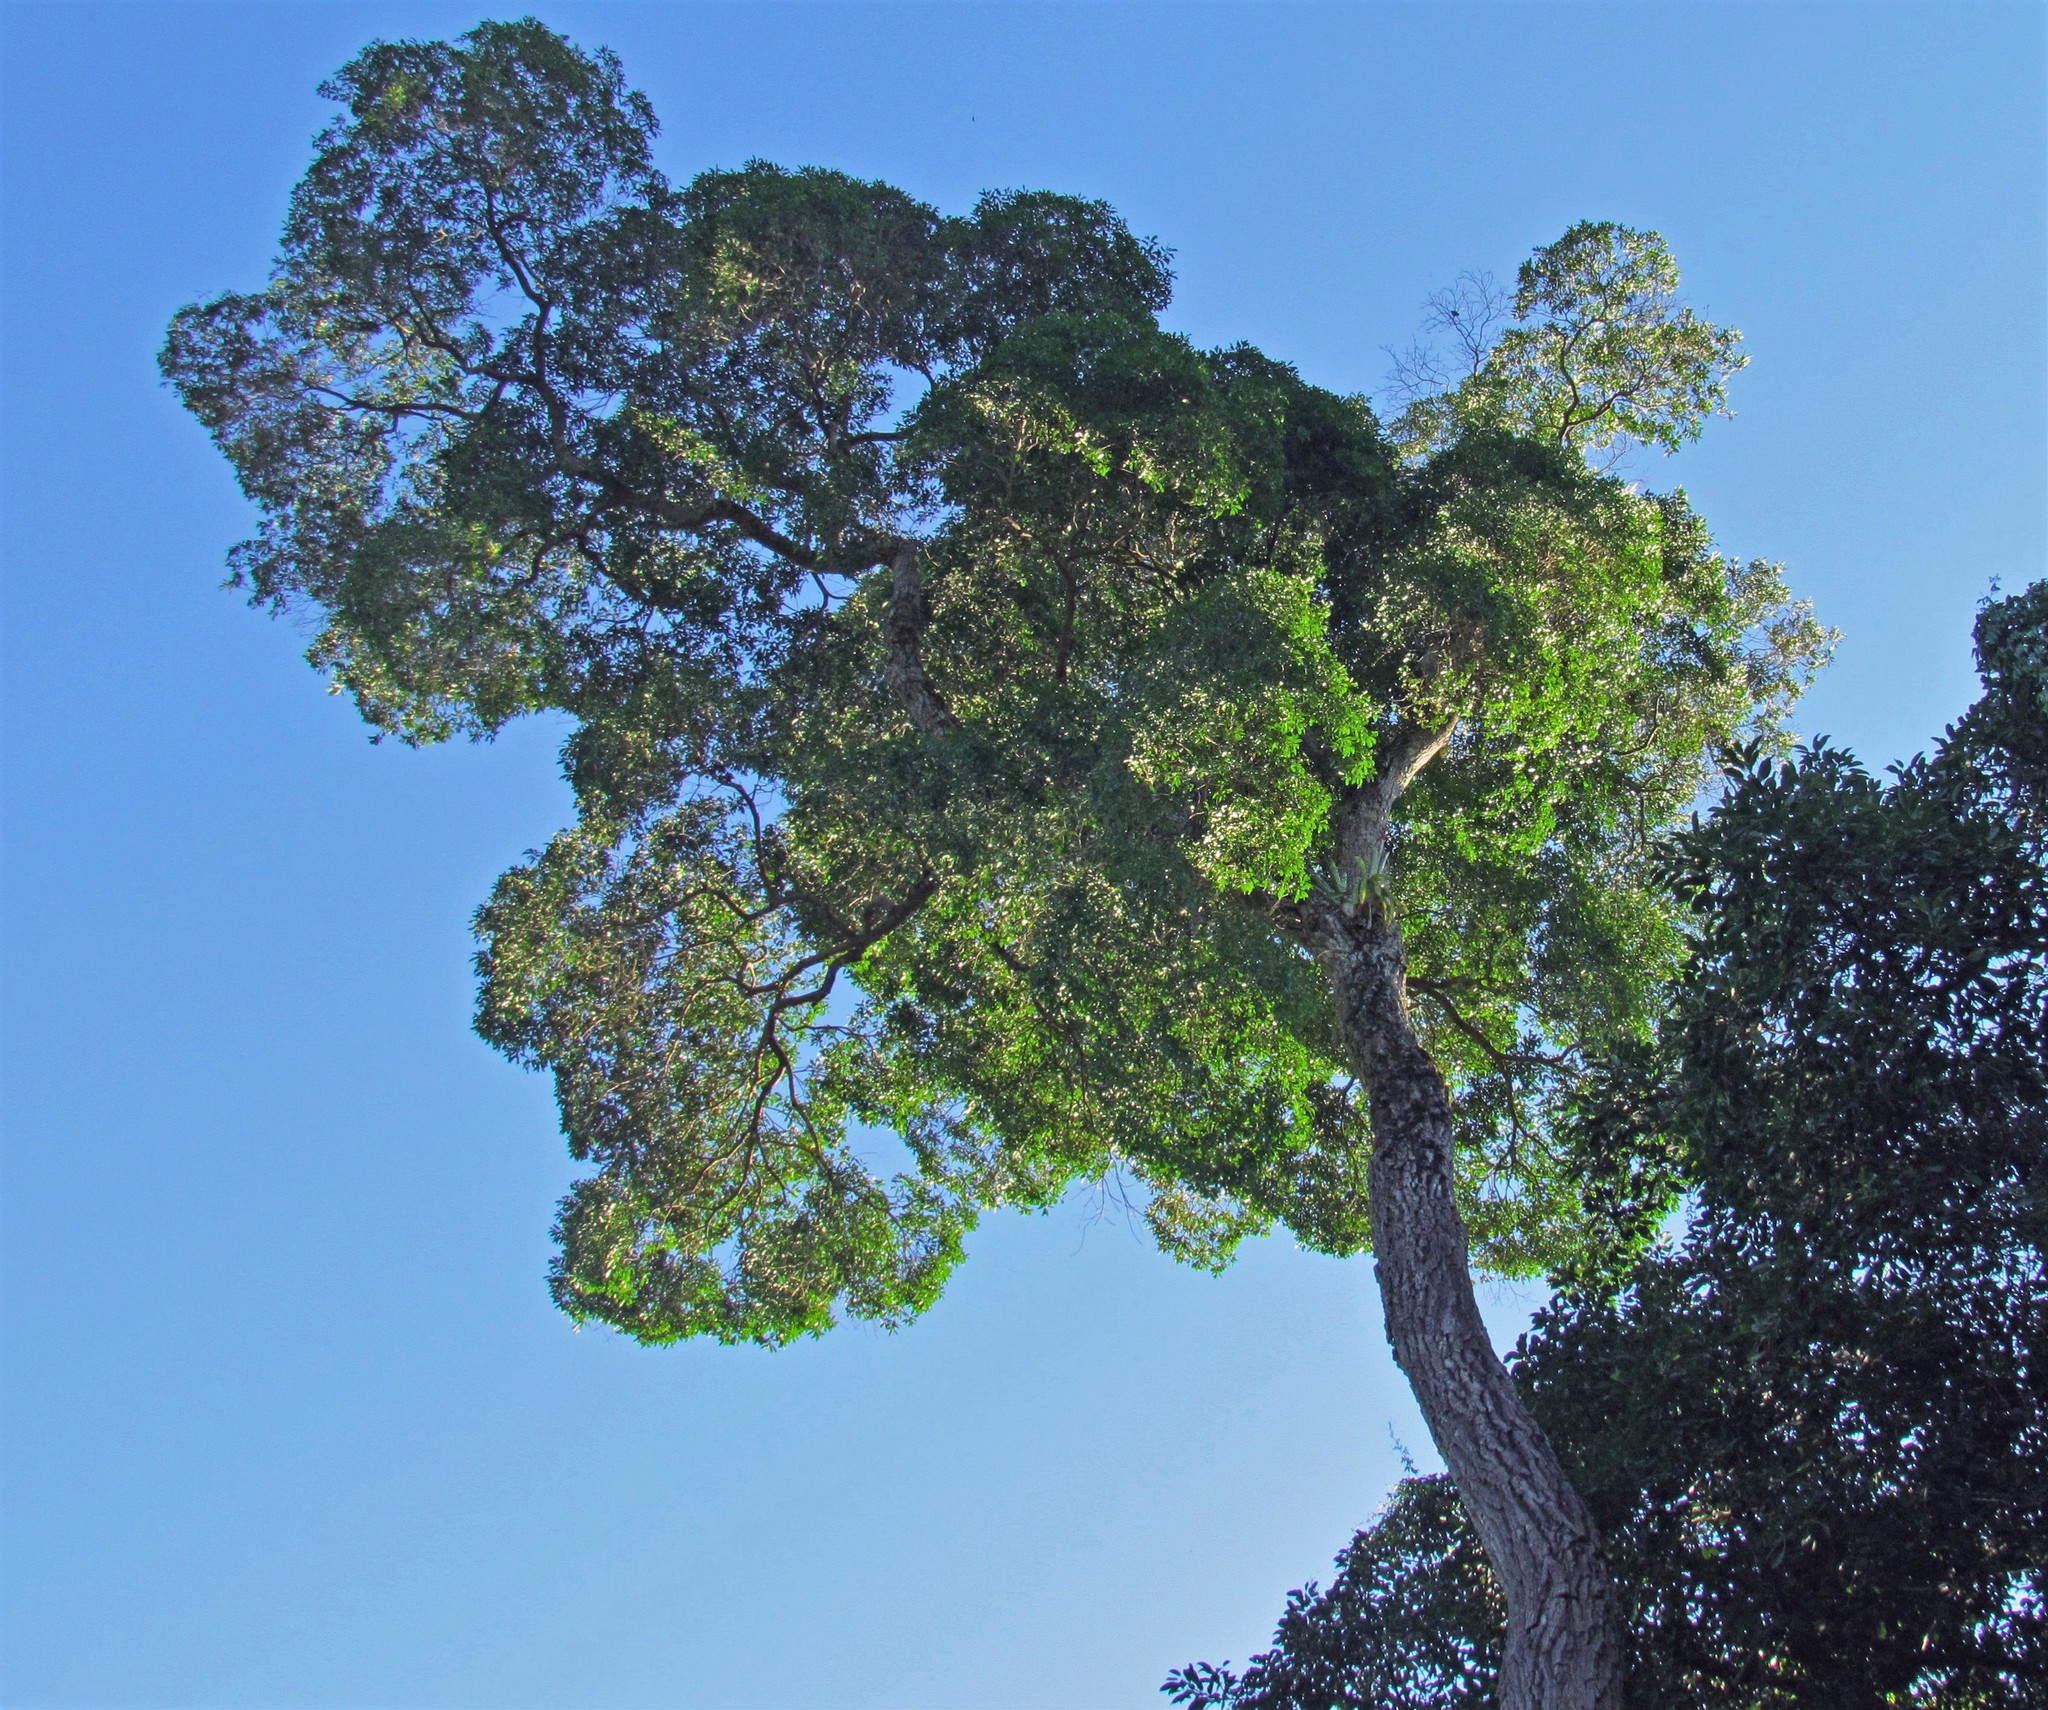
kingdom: Plantae
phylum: Tracheophyta
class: Magnoliopsida
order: Gentianales
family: Apocynaceae
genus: Aspidosperma
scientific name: Aspidosperma polyneuron
